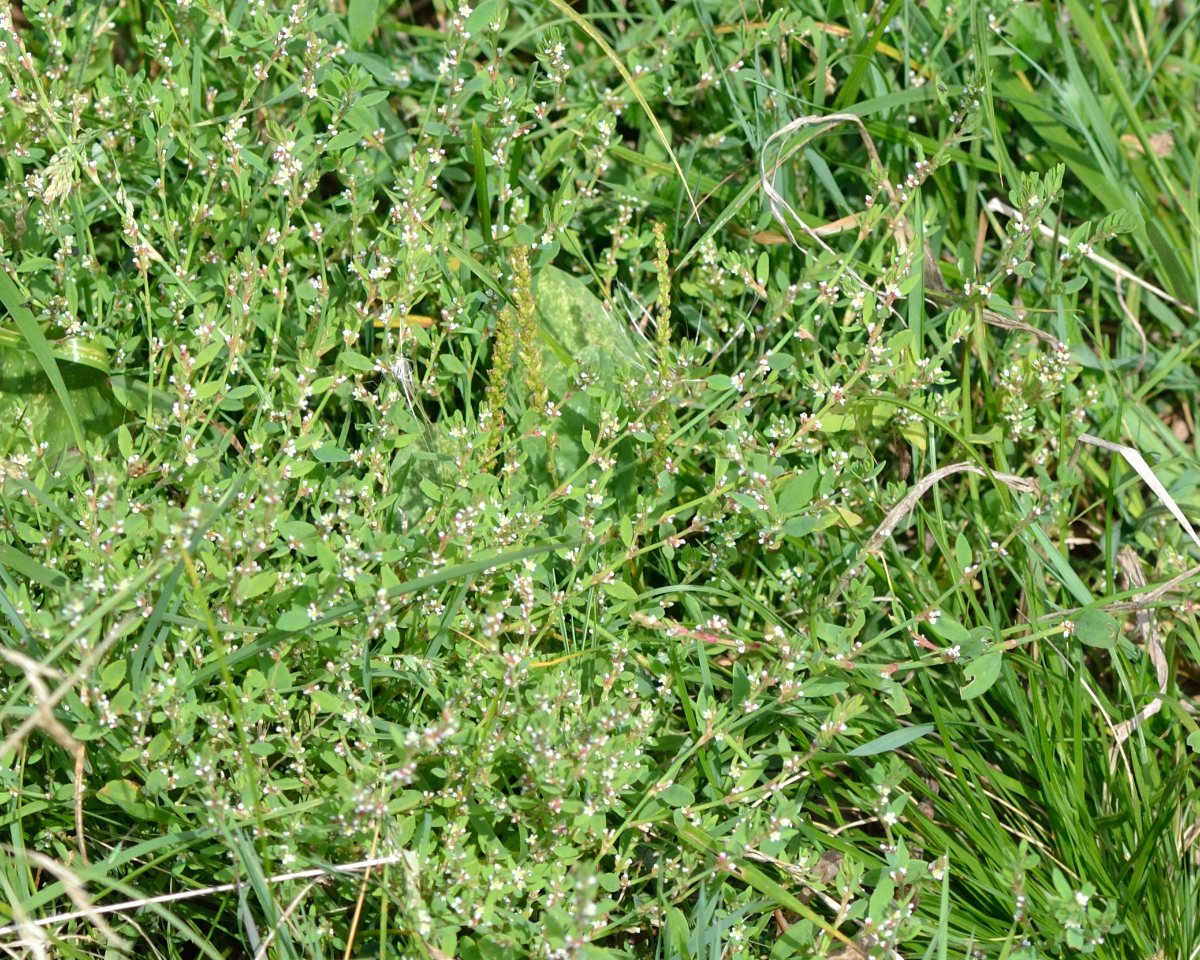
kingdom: Plantae
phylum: Tracheophyta
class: Magnoliopsida
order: Caryophyllales
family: Polygonaceae
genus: Polygonum
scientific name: Polygonum
